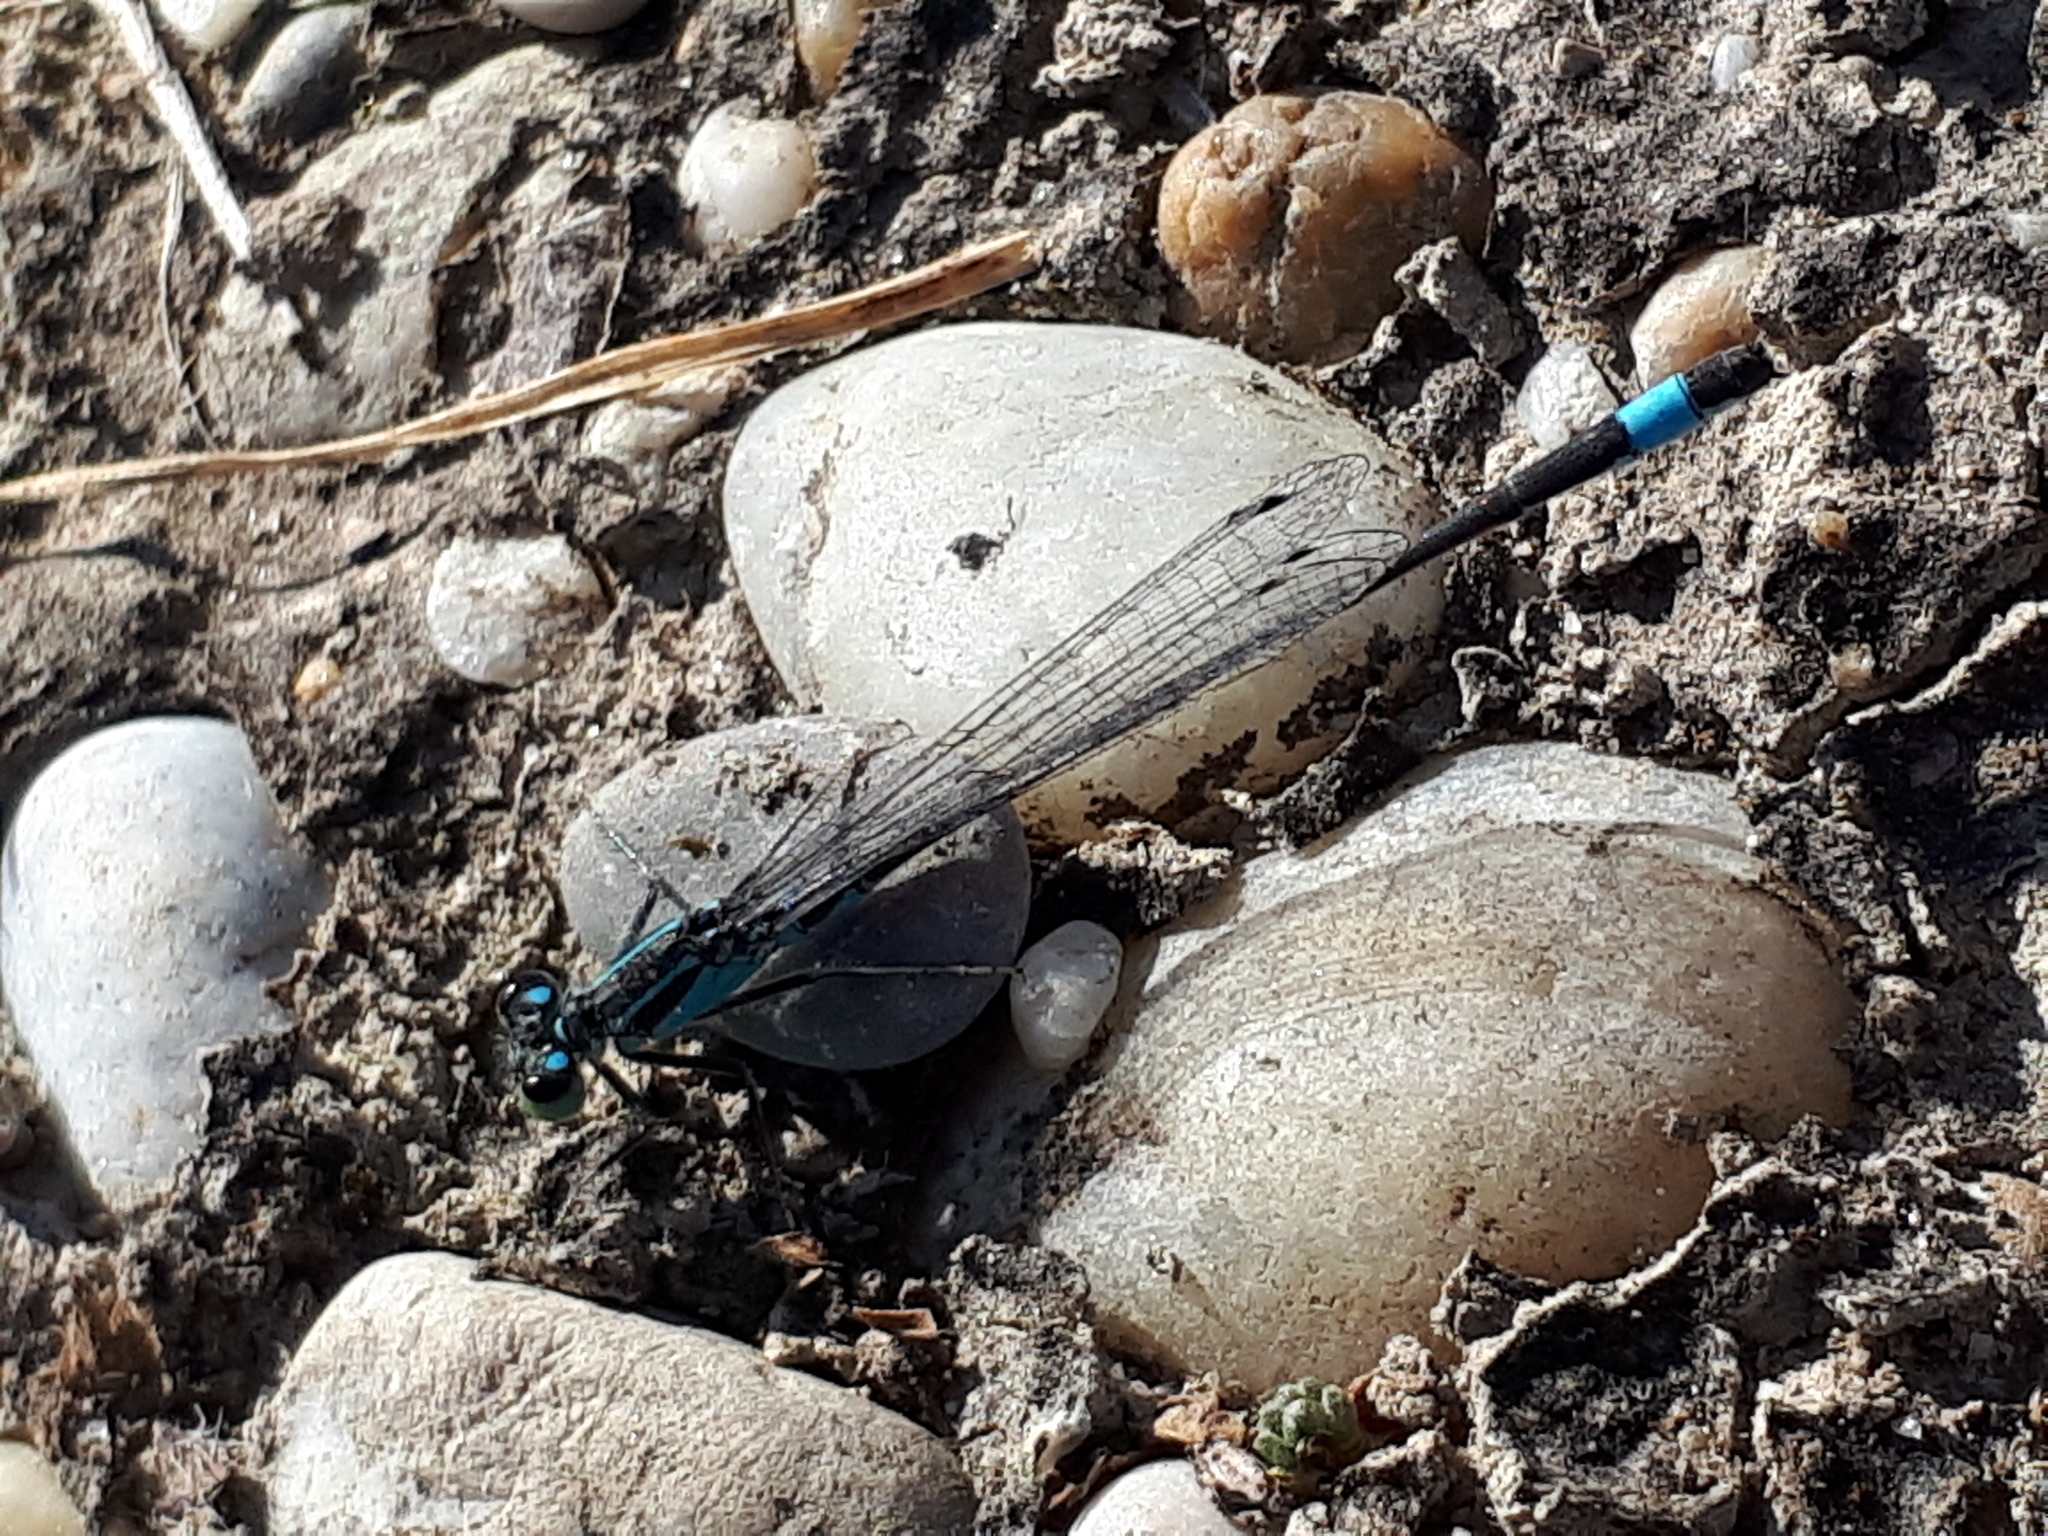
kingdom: Animalia
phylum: Arthropoda
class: Insecta
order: Odonata
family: Coenagrionidae
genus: Ischnura
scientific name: Ischnura elegans
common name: Blue-tailed damselfly
